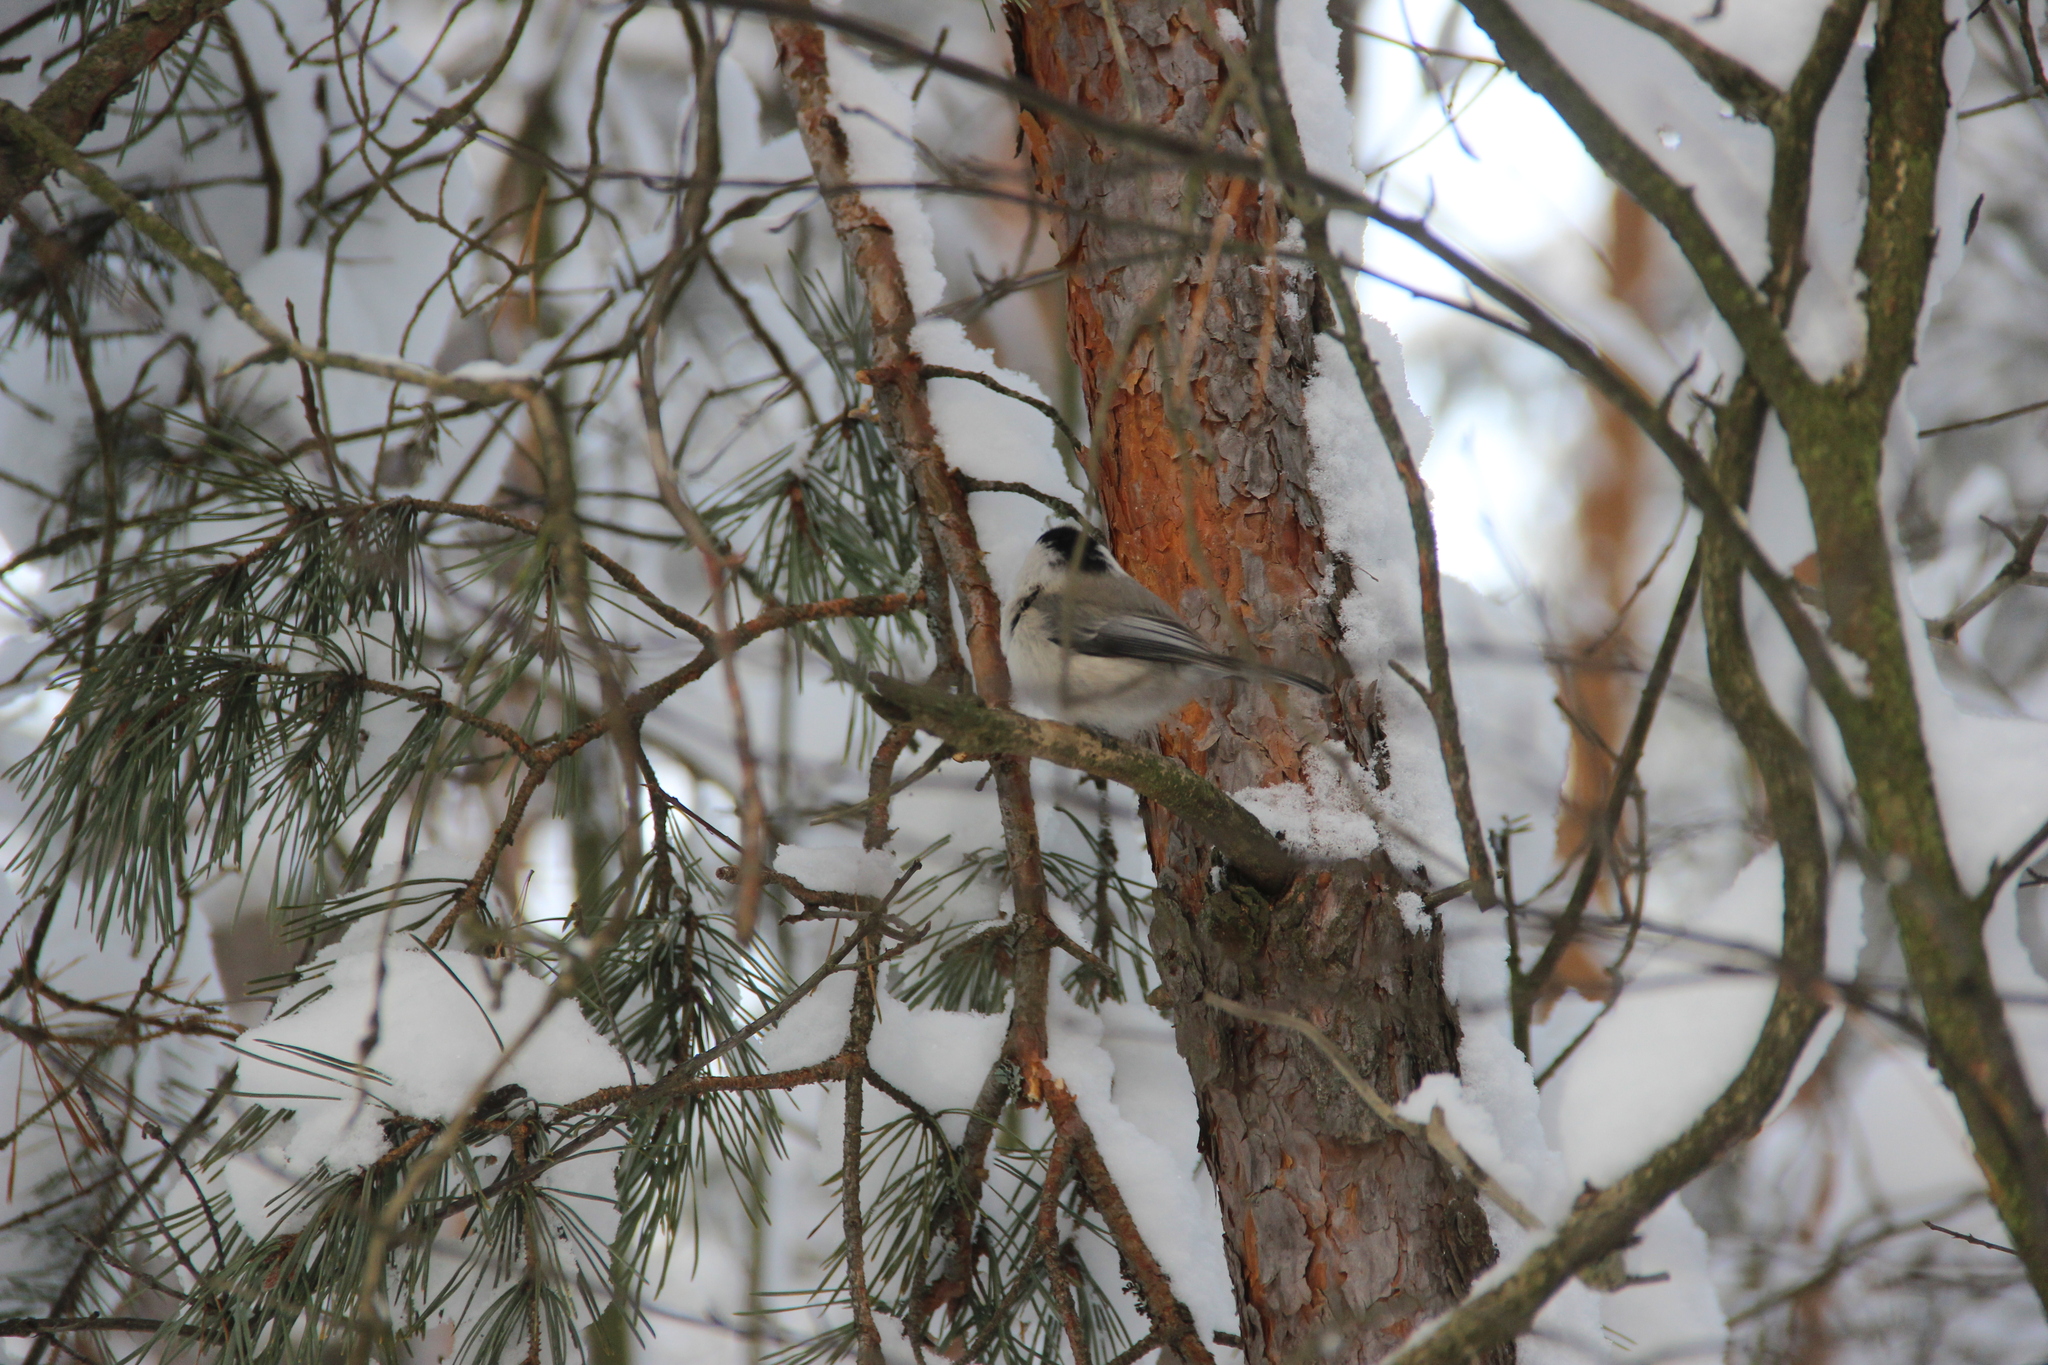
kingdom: Animalia
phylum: Chordata
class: Aves
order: Passeriformes
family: Paridae
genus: Poecile
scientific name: Poecile montanus
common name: Willow tit
